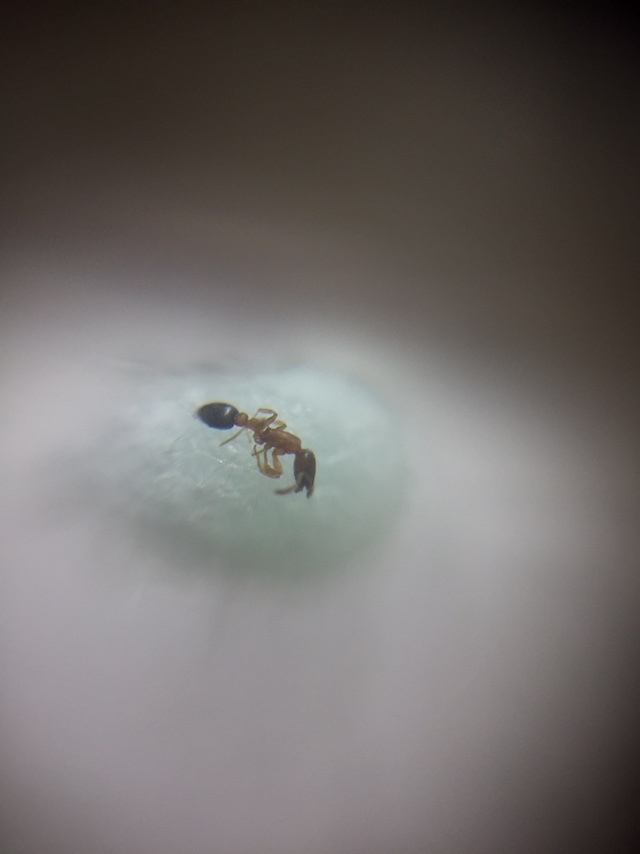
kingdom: Animalia
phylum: Arthropoda
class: Insecta
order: Hymenoptera
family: Formicidae
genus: Cardiocondyla
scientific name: Cardiocondyla minutior
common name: Ant
